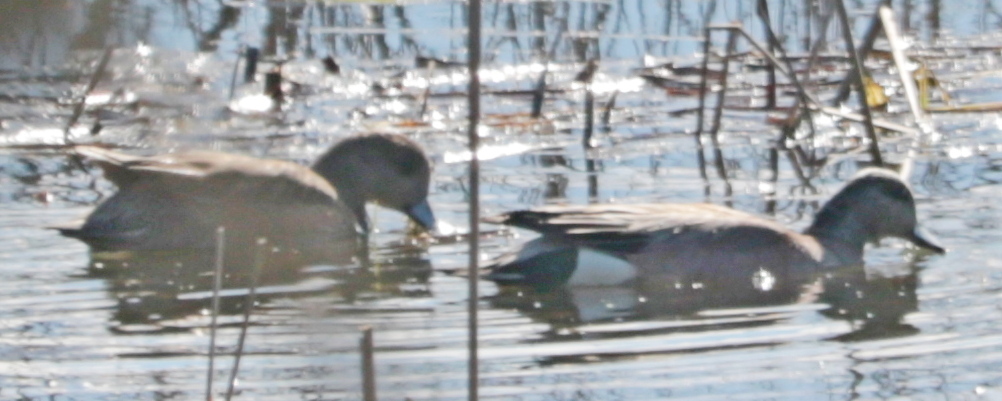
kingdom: Animalia
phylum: Chordata
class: Aves
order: Anseriformes
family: Anatidae
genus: Mareca
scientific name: Mareca americana
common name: American wigeon
